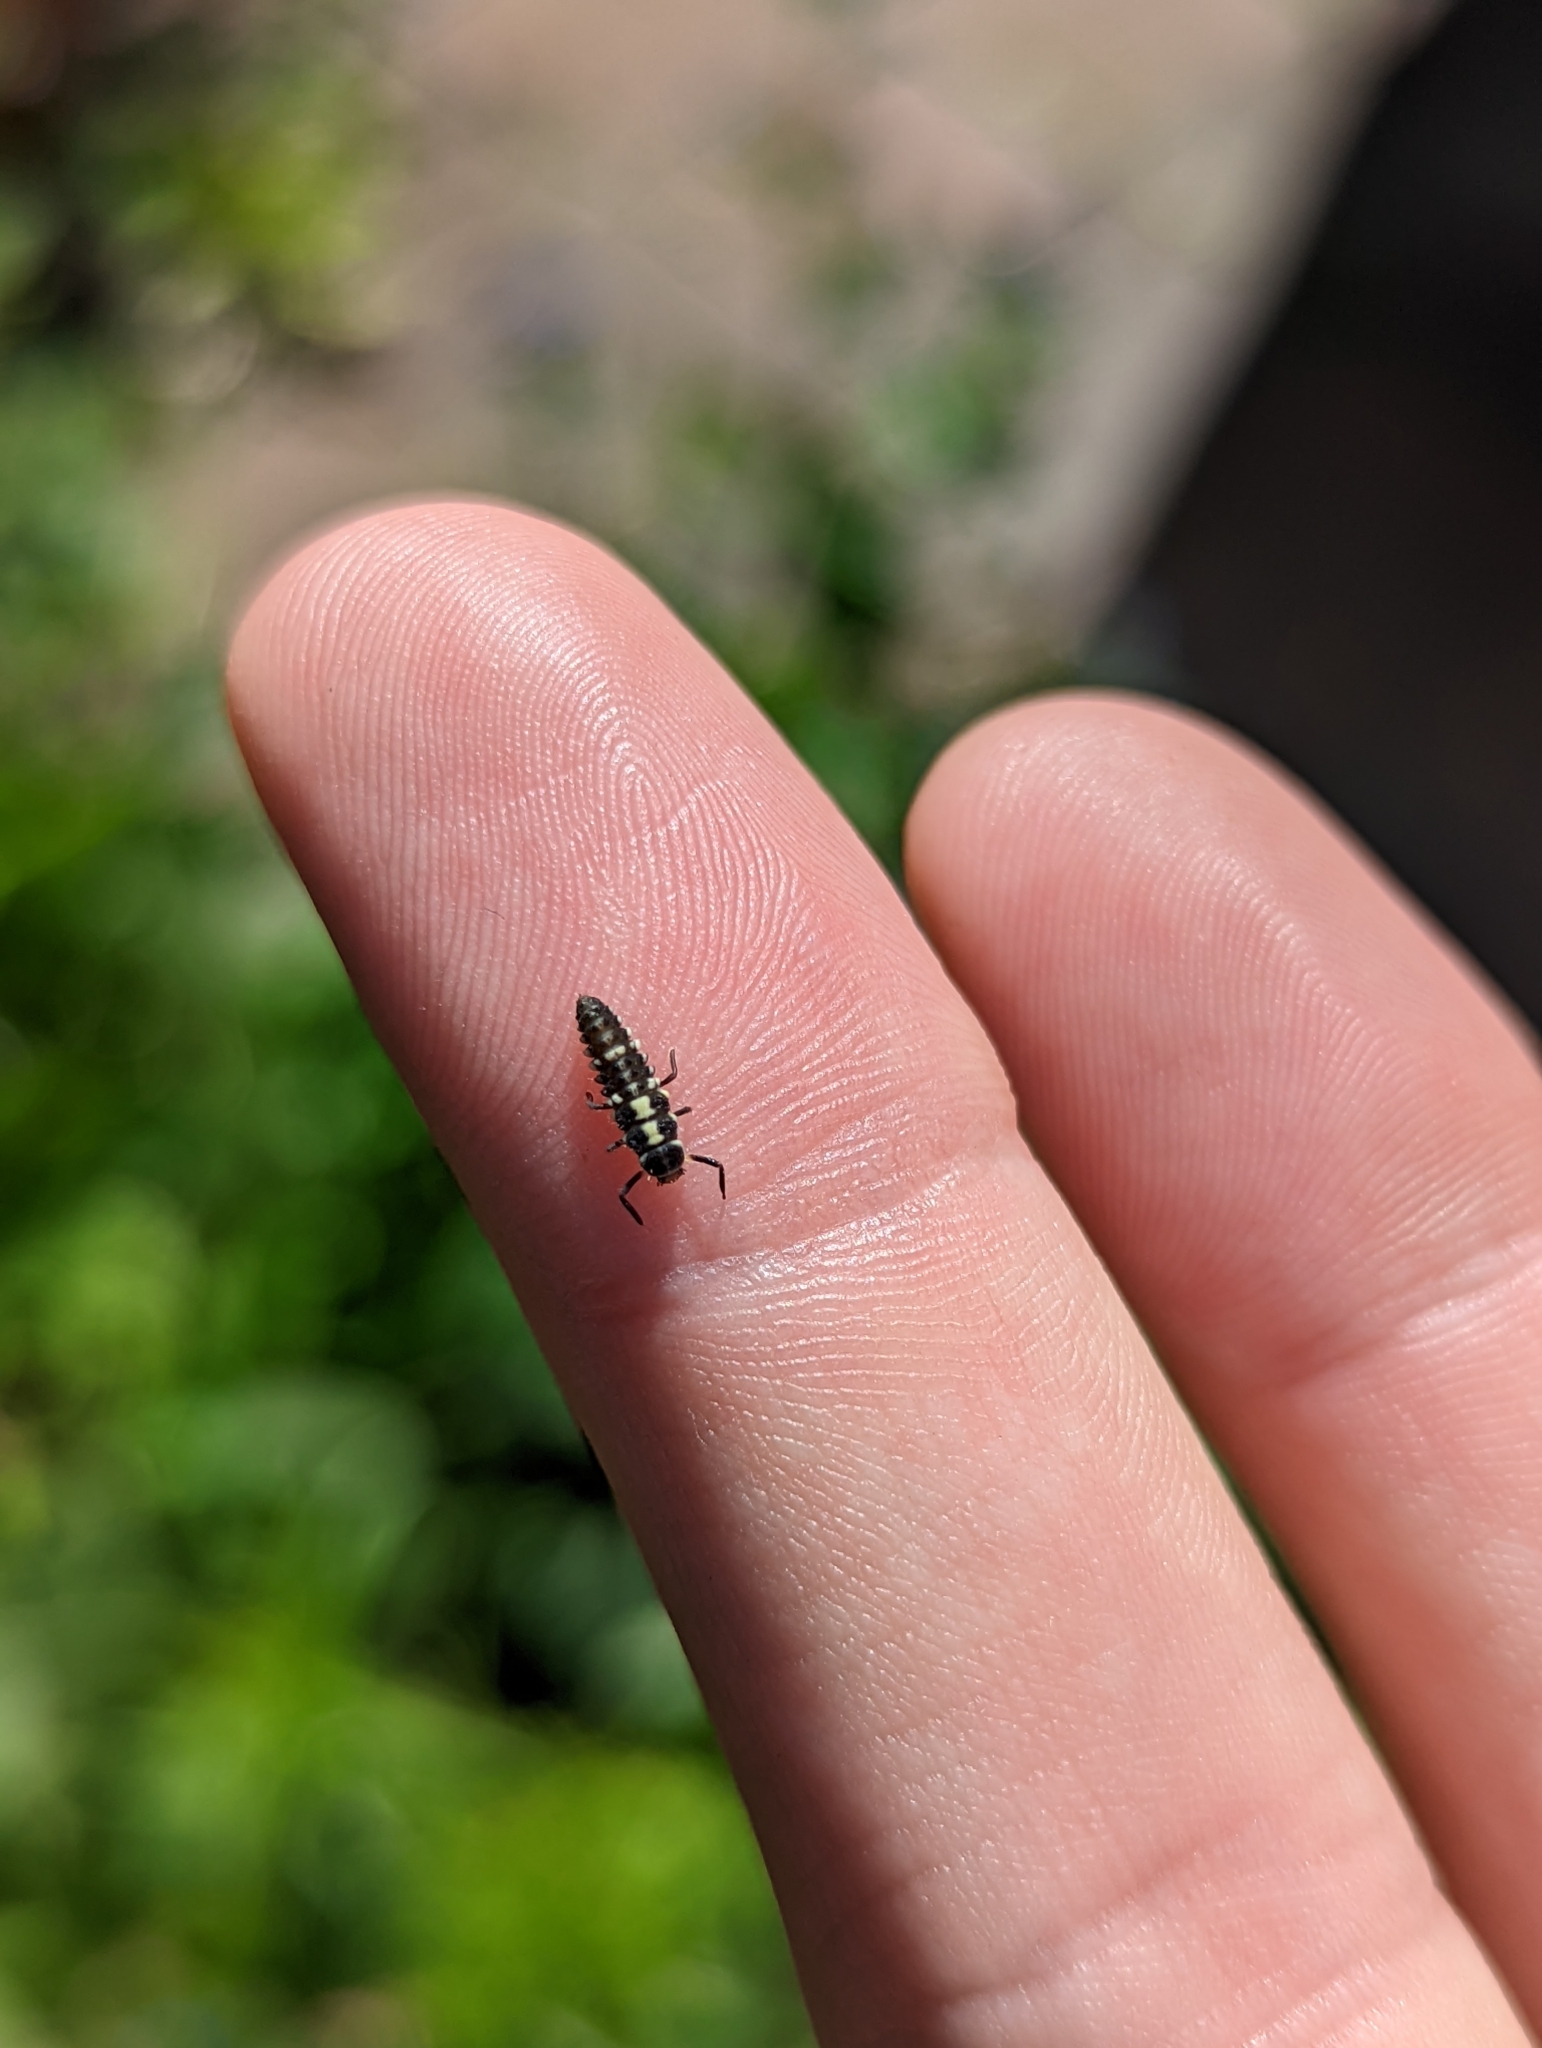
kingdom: Animalia
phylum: Arthropoda
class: Insecta
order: Coleoptera
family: Coccinellidae
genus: Propylaea
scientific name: Propylaea quatuordecimpunctata
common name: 14-spotted ladybird beetle
